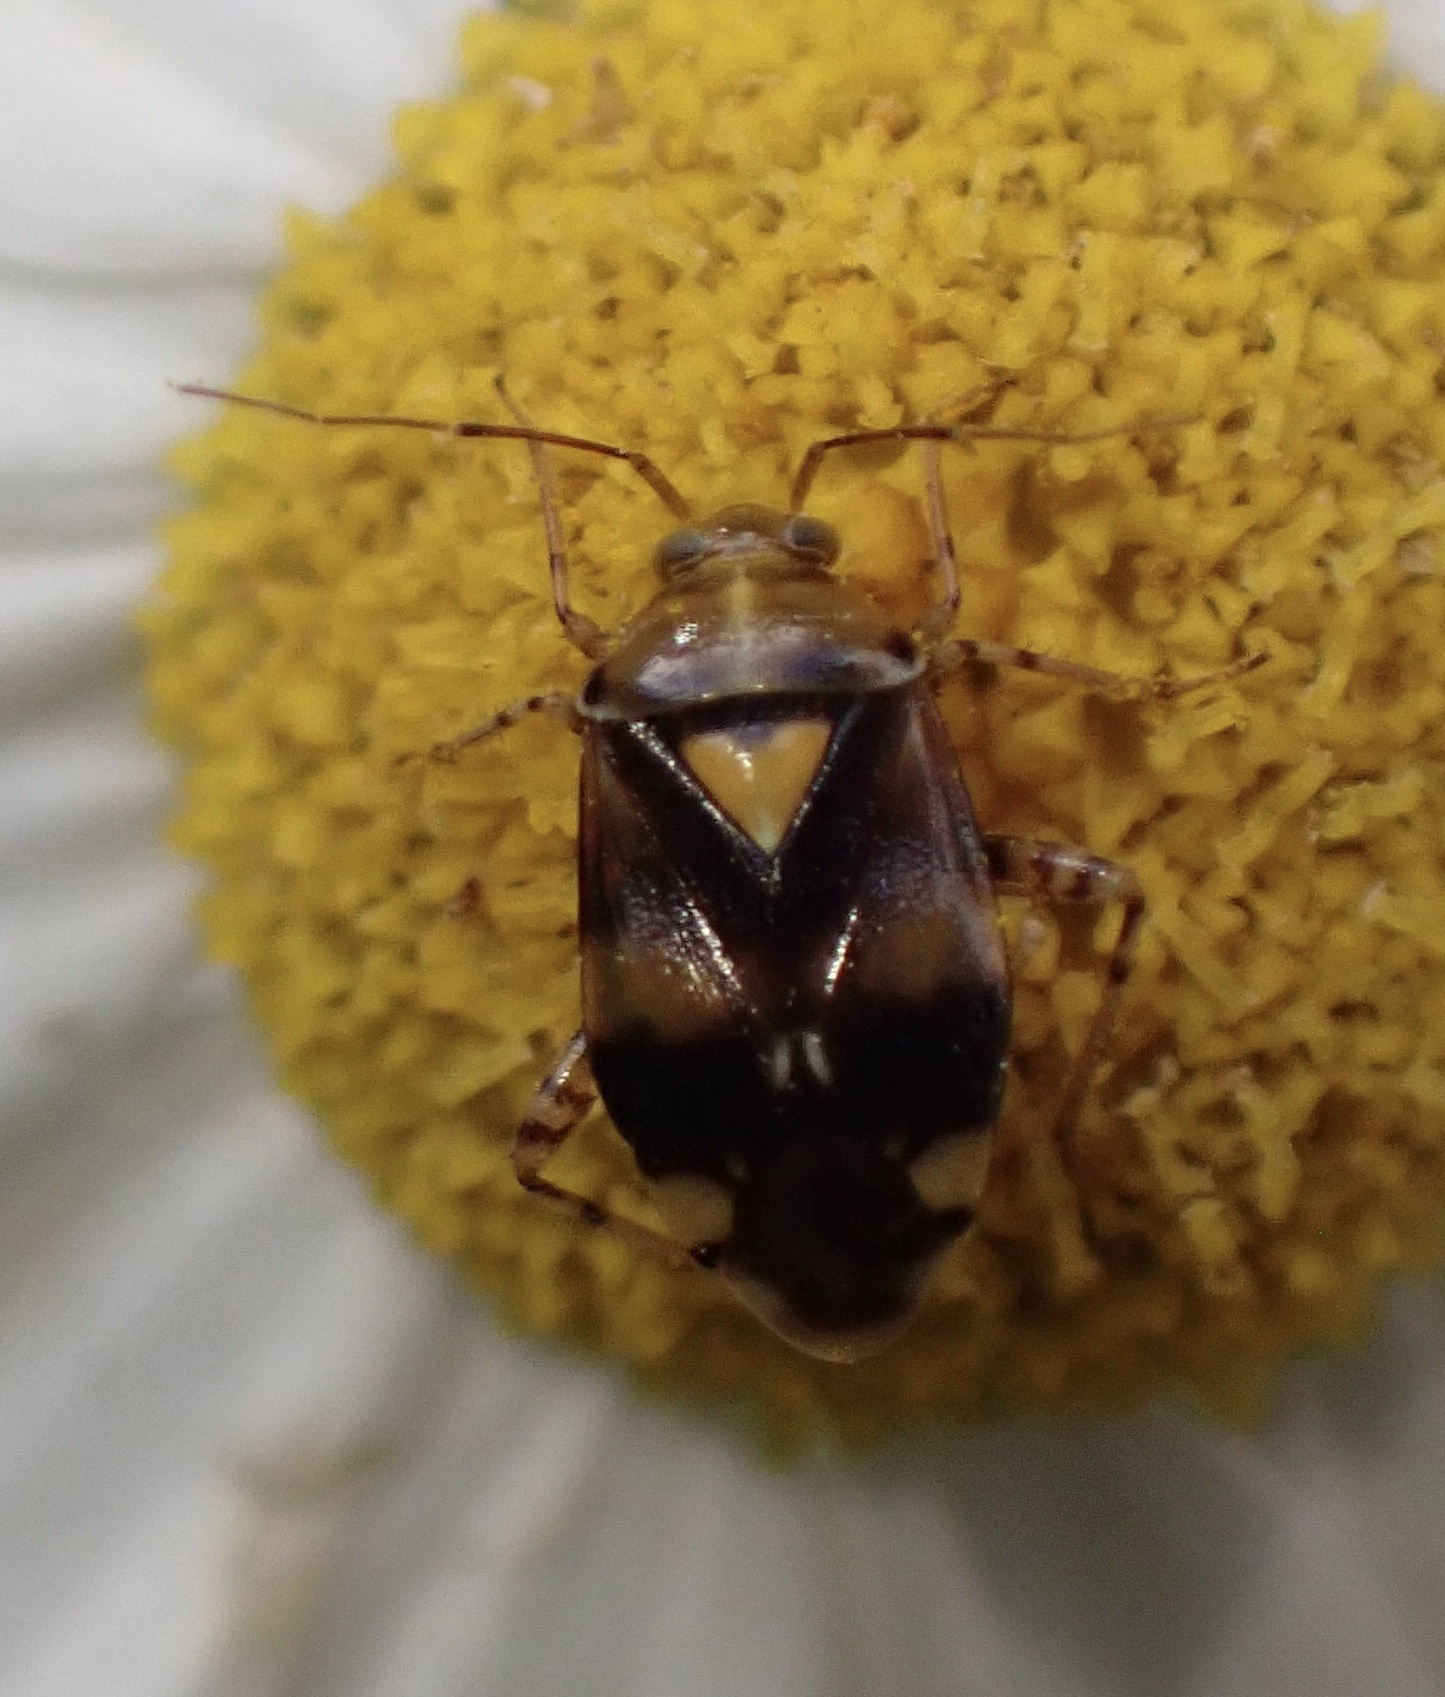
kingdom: Animalia
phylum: Arthropoda
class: Insecta
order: Hemiptera
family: Miridae
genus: Liocoris
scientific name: Liocoris tripustulatus
